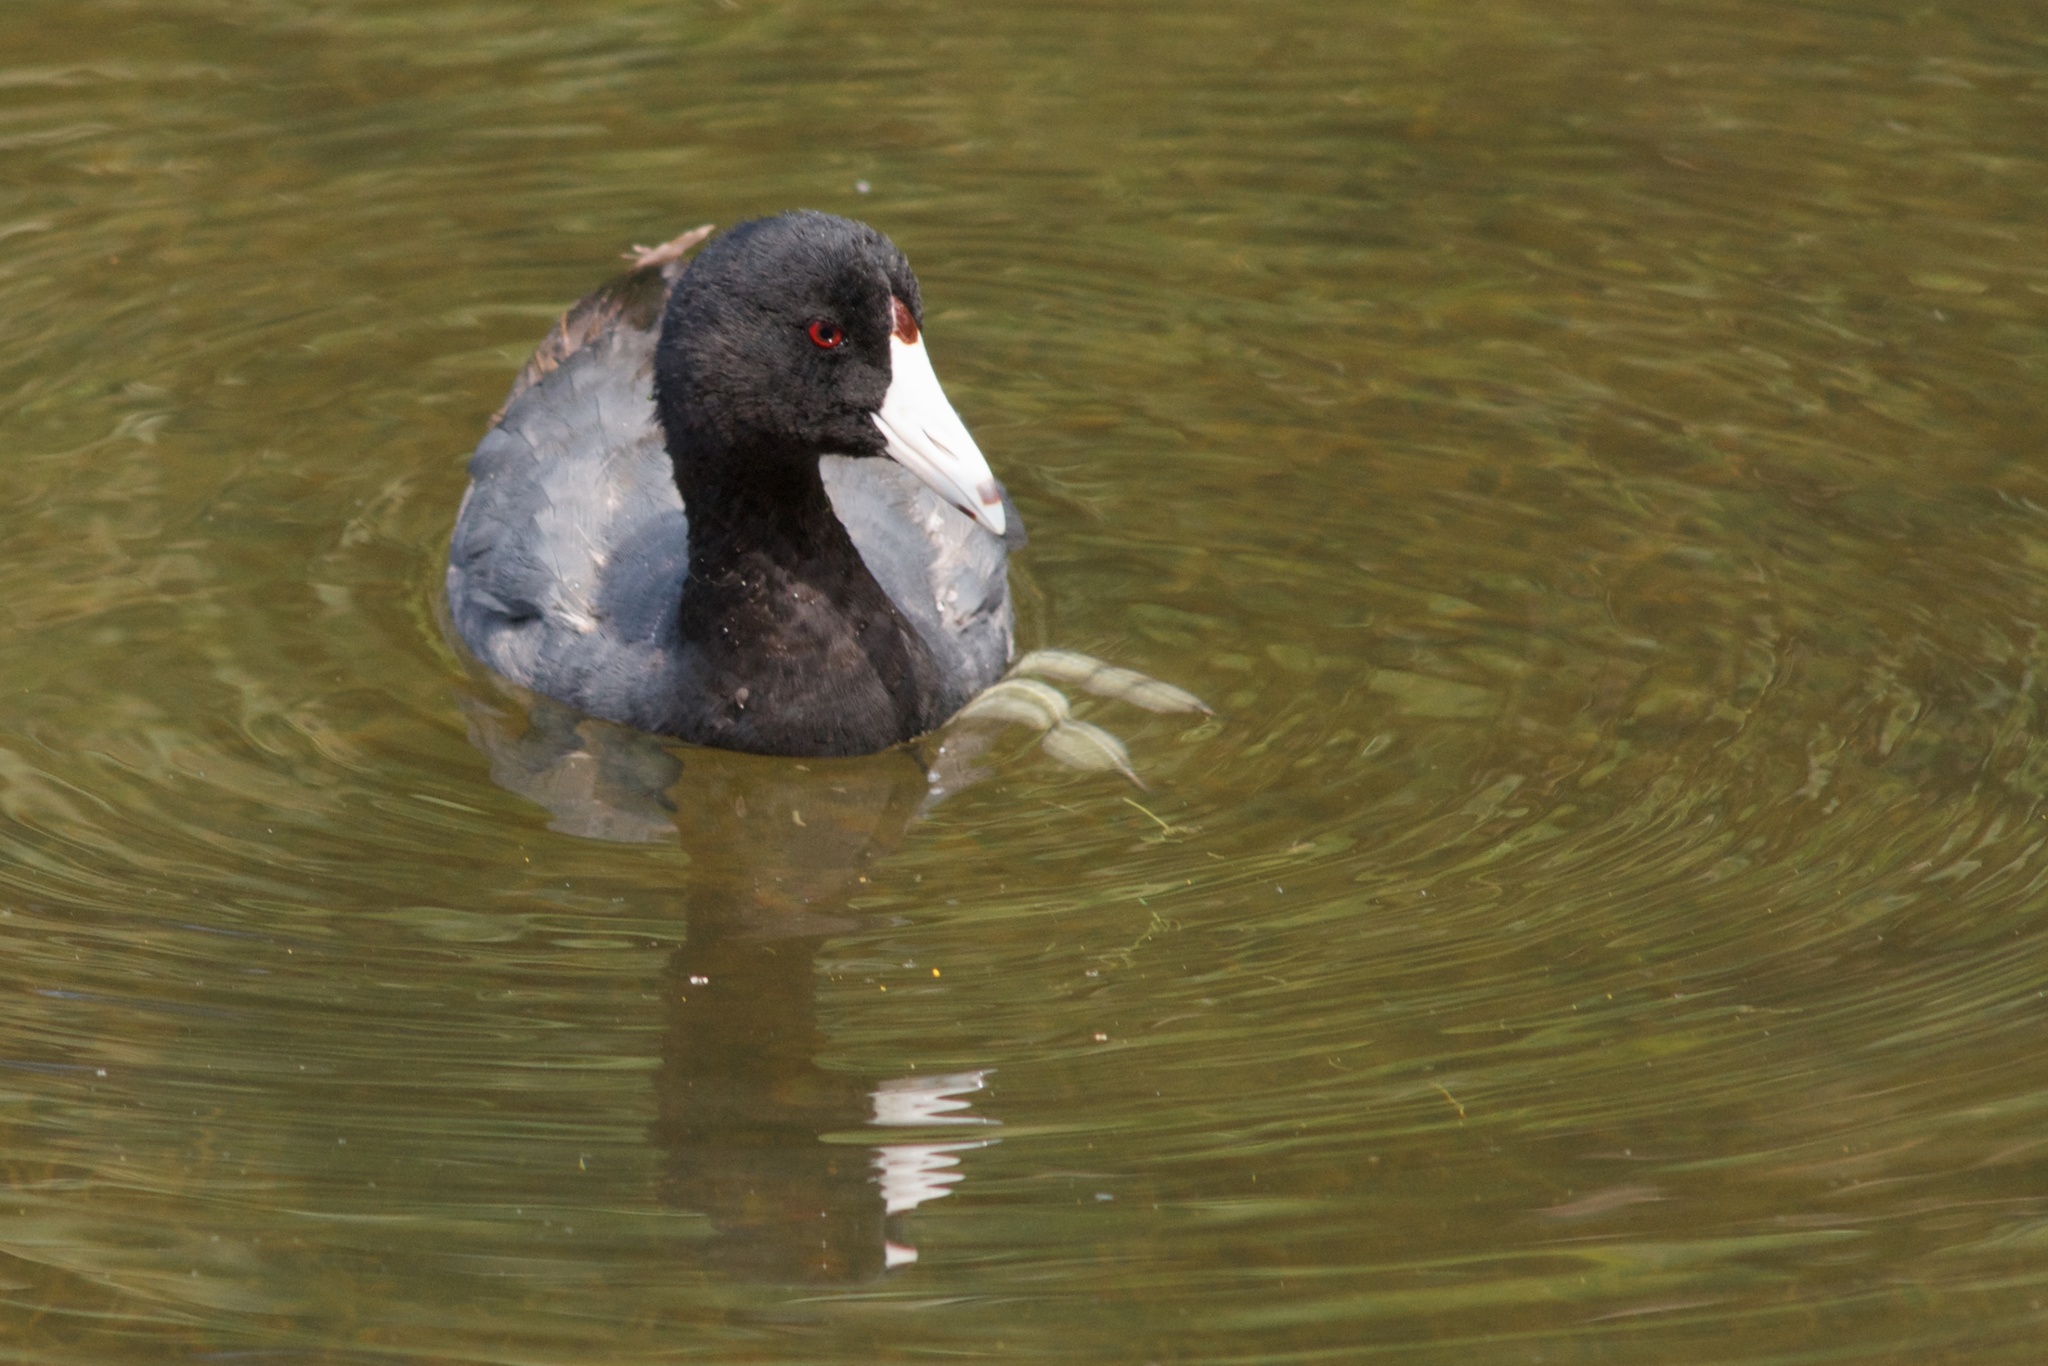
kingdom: Animalia
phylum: Chordata
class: Aves
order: Gruiformes
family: Rallidae
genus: Fulica
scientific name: Fulica americana
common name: American coot
